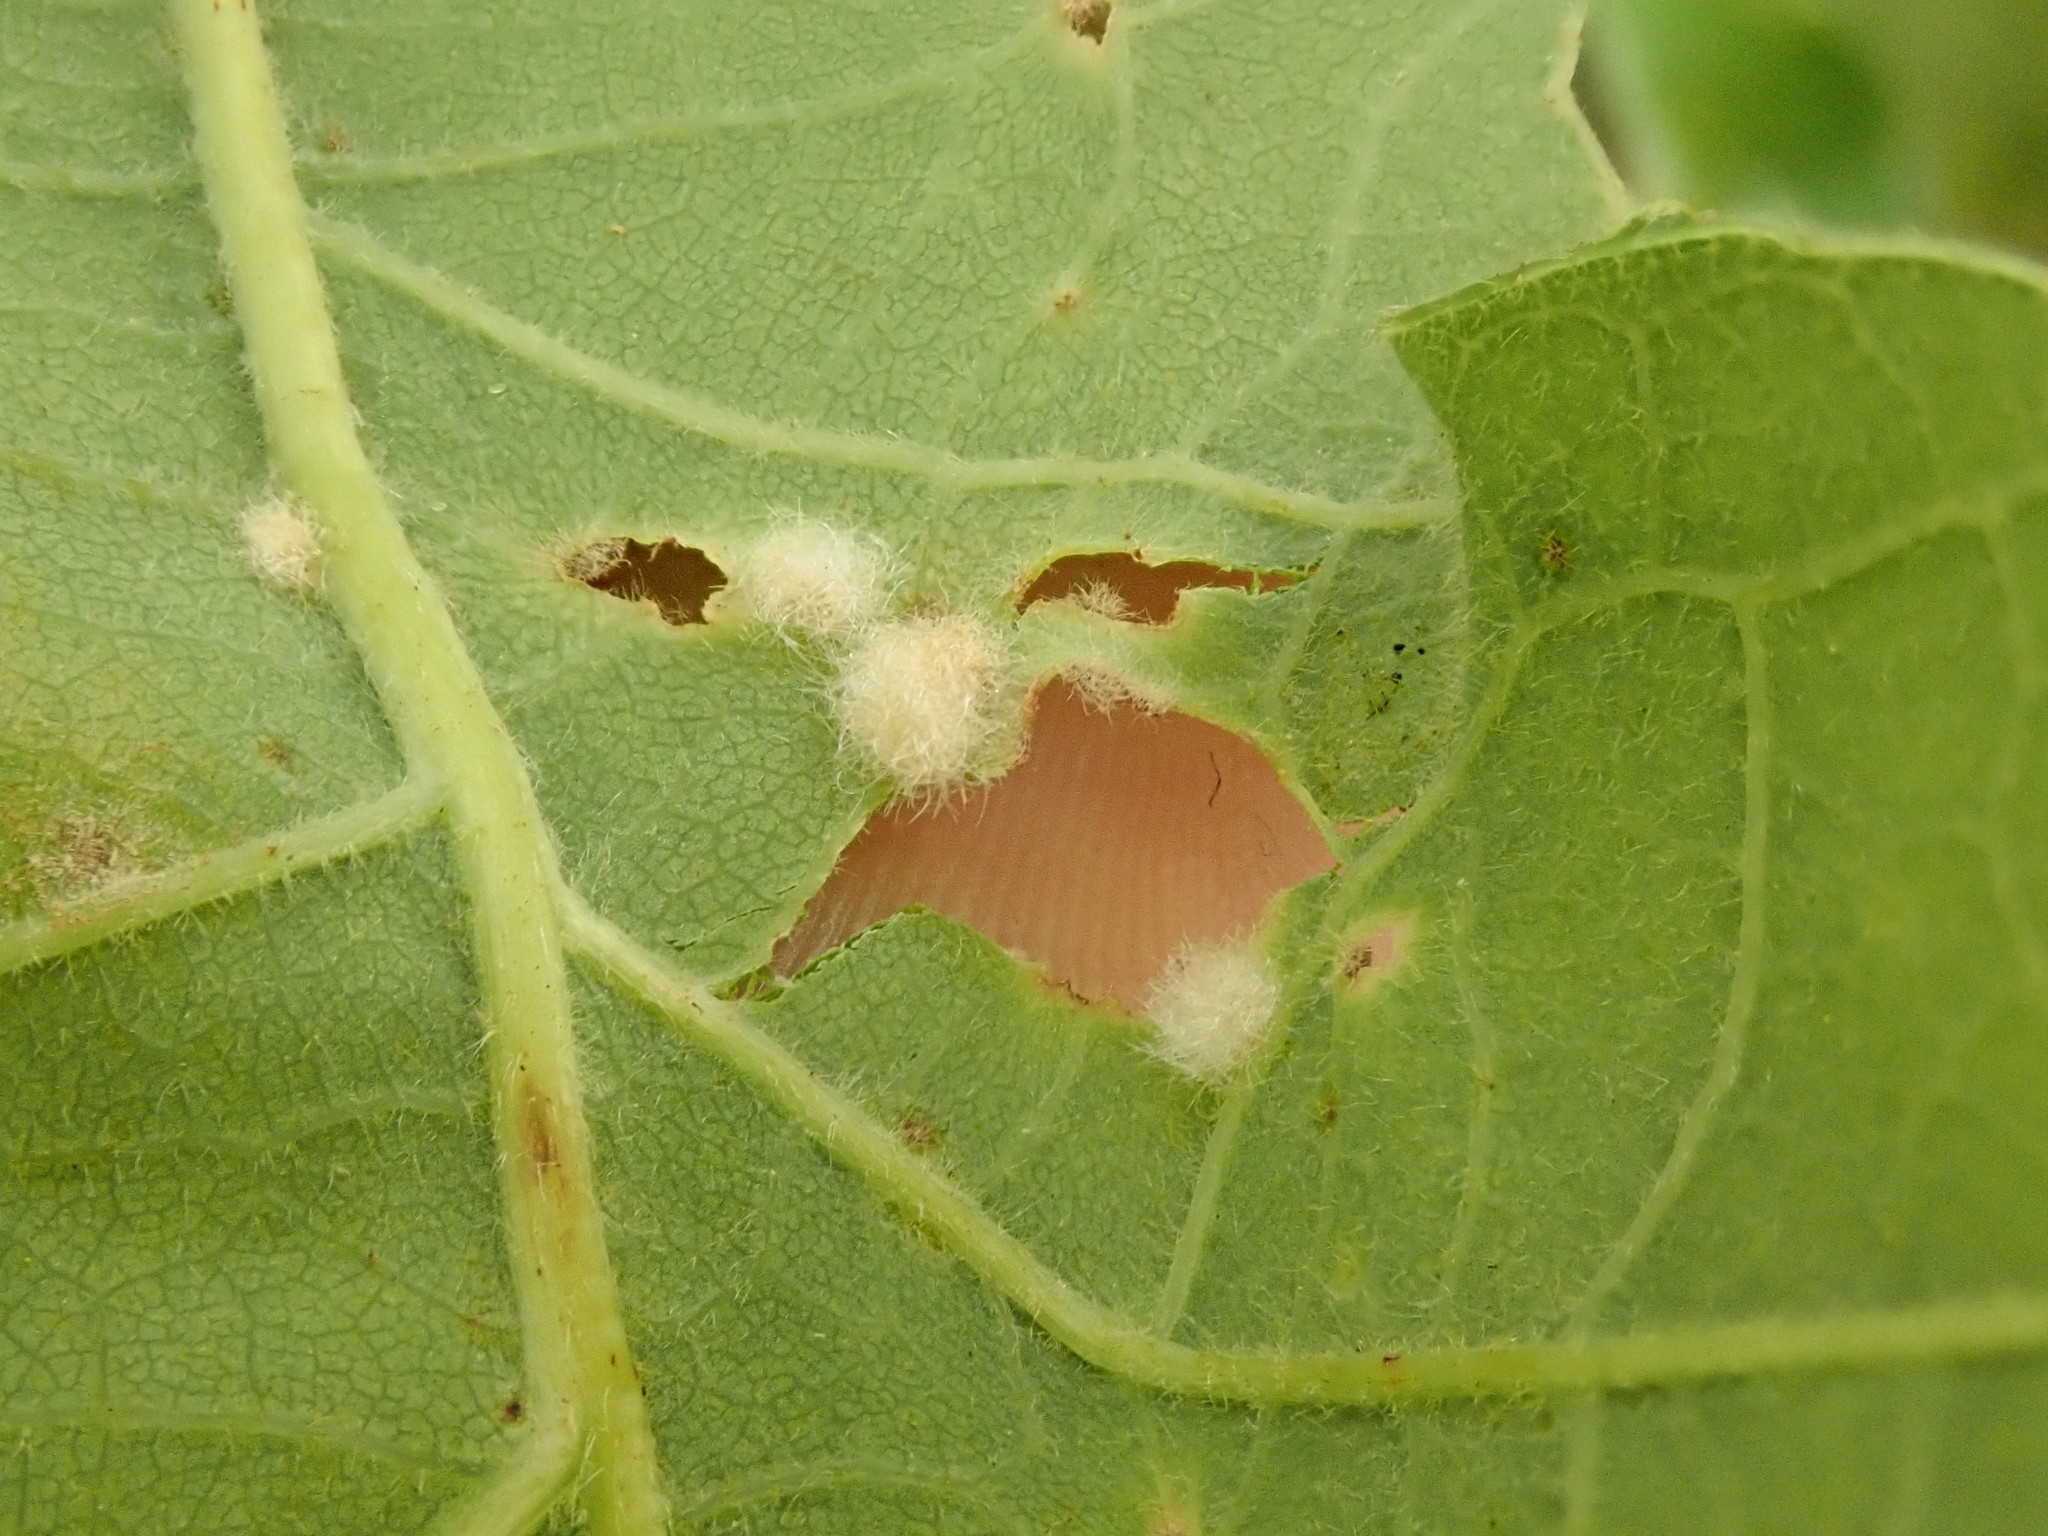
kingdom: Animalia
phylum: Arthropoda
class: Insecta
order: Hymenoptera
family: Cynipidae
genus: Neuroterus
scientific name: Neuroterus quercusverrucarum
